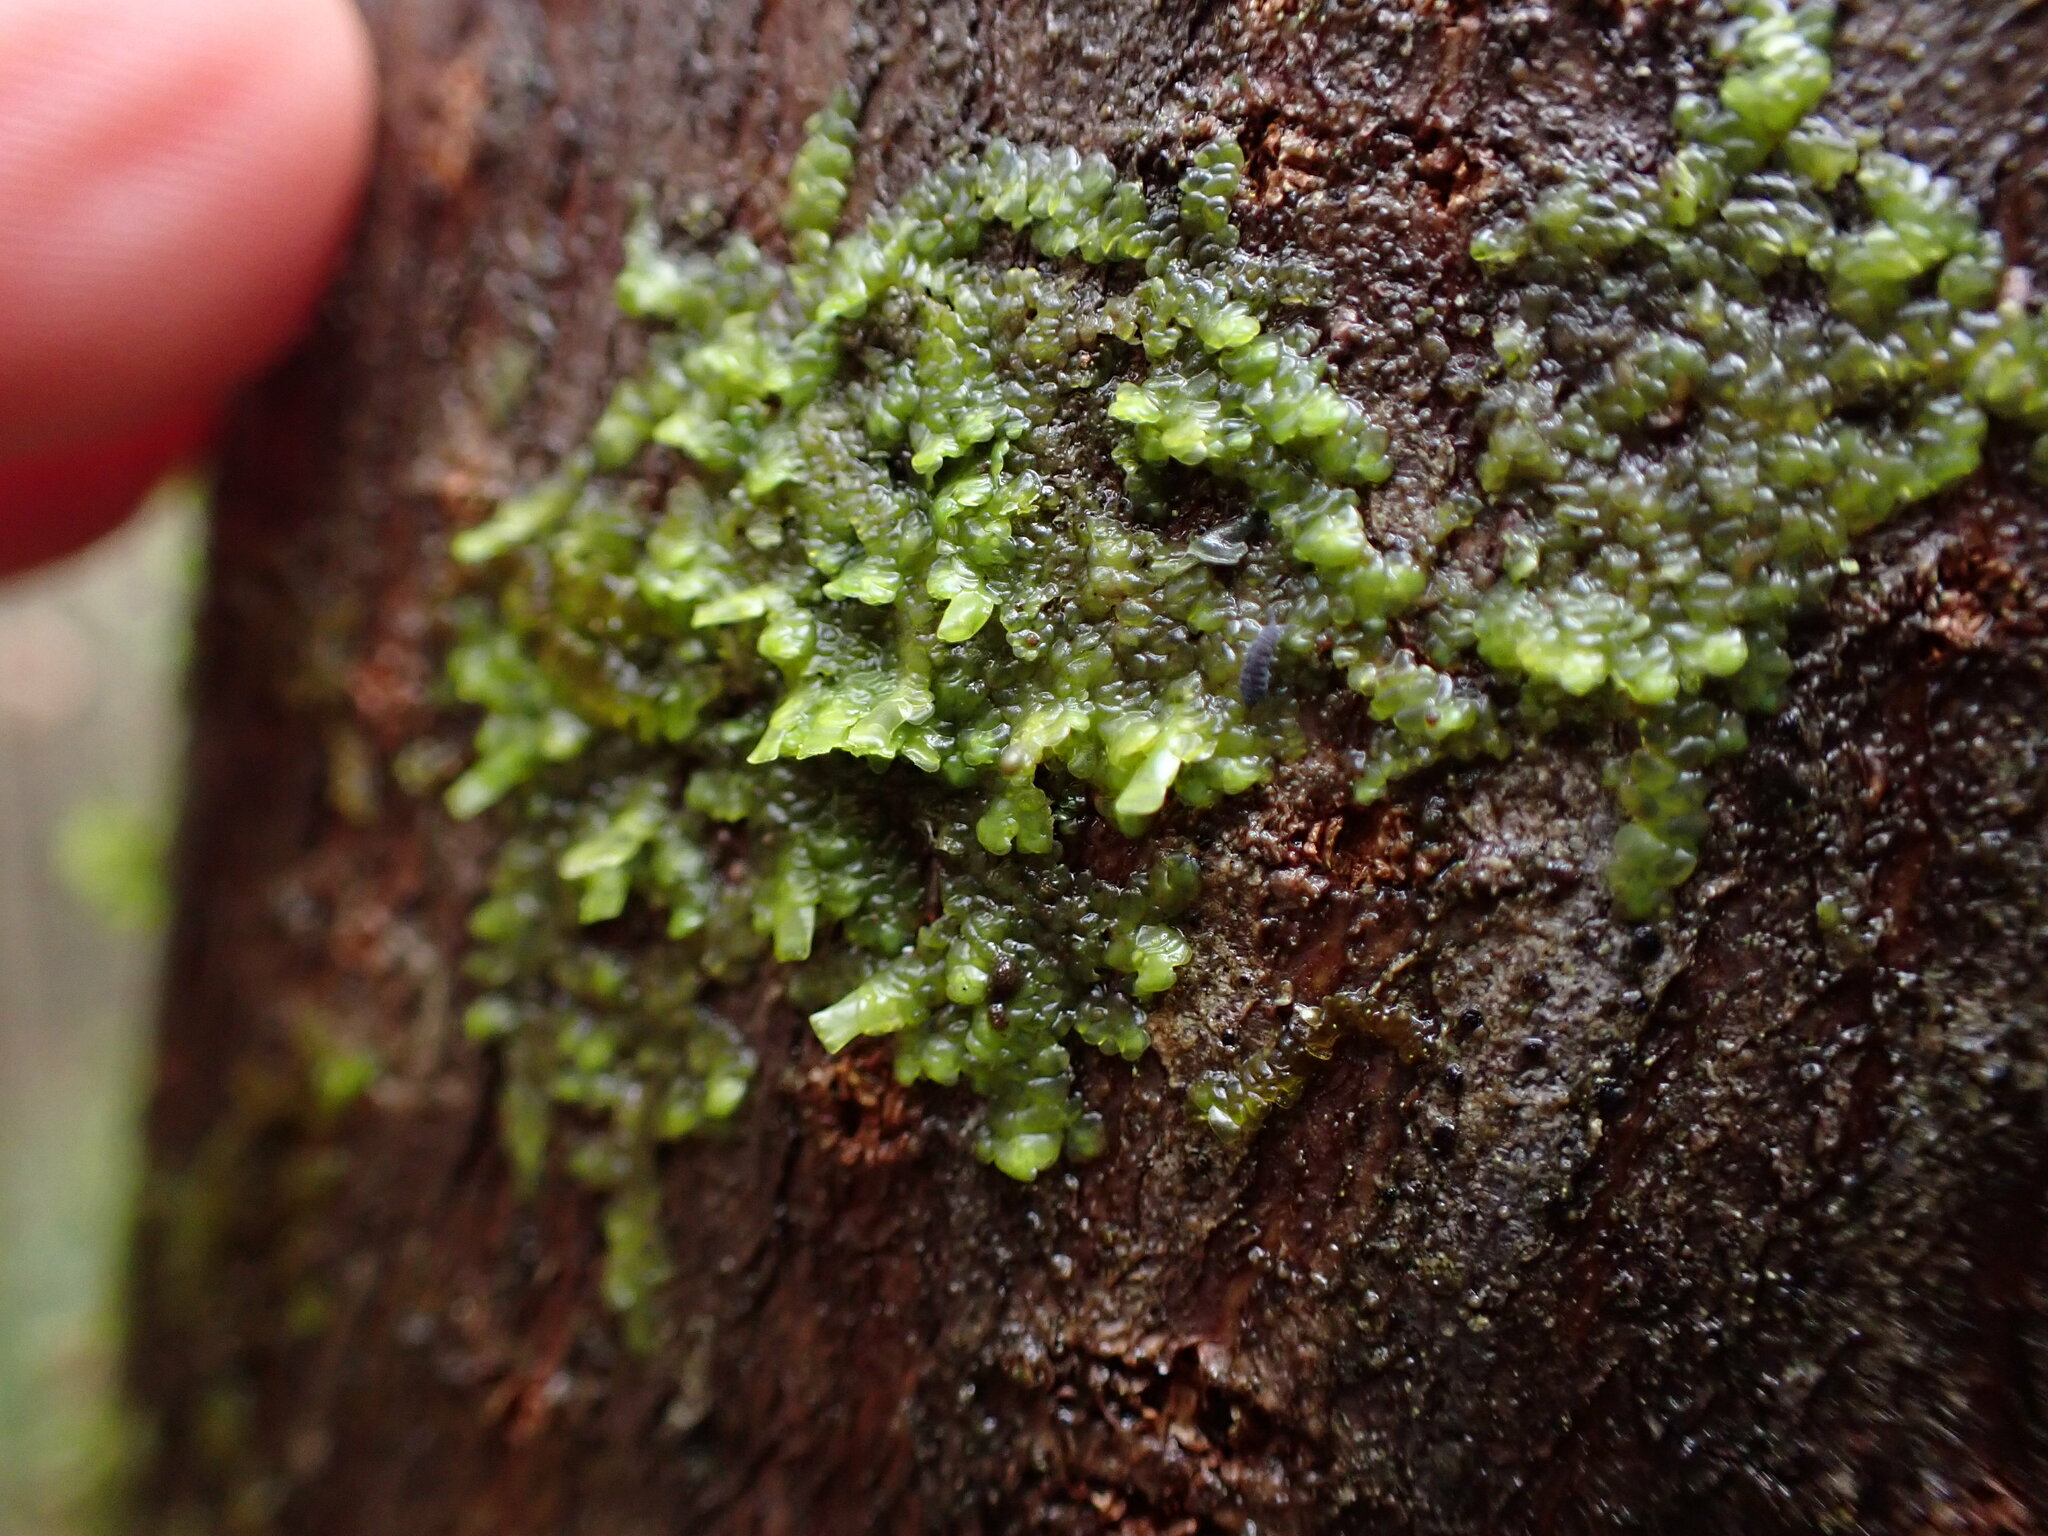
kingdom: Plantae
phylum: Marchantiophyta
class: Jungermanniopsida
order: Porellales
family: Radulaceae
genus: Radula
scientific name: Radula complanata
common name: Flat-leaved scalewort
